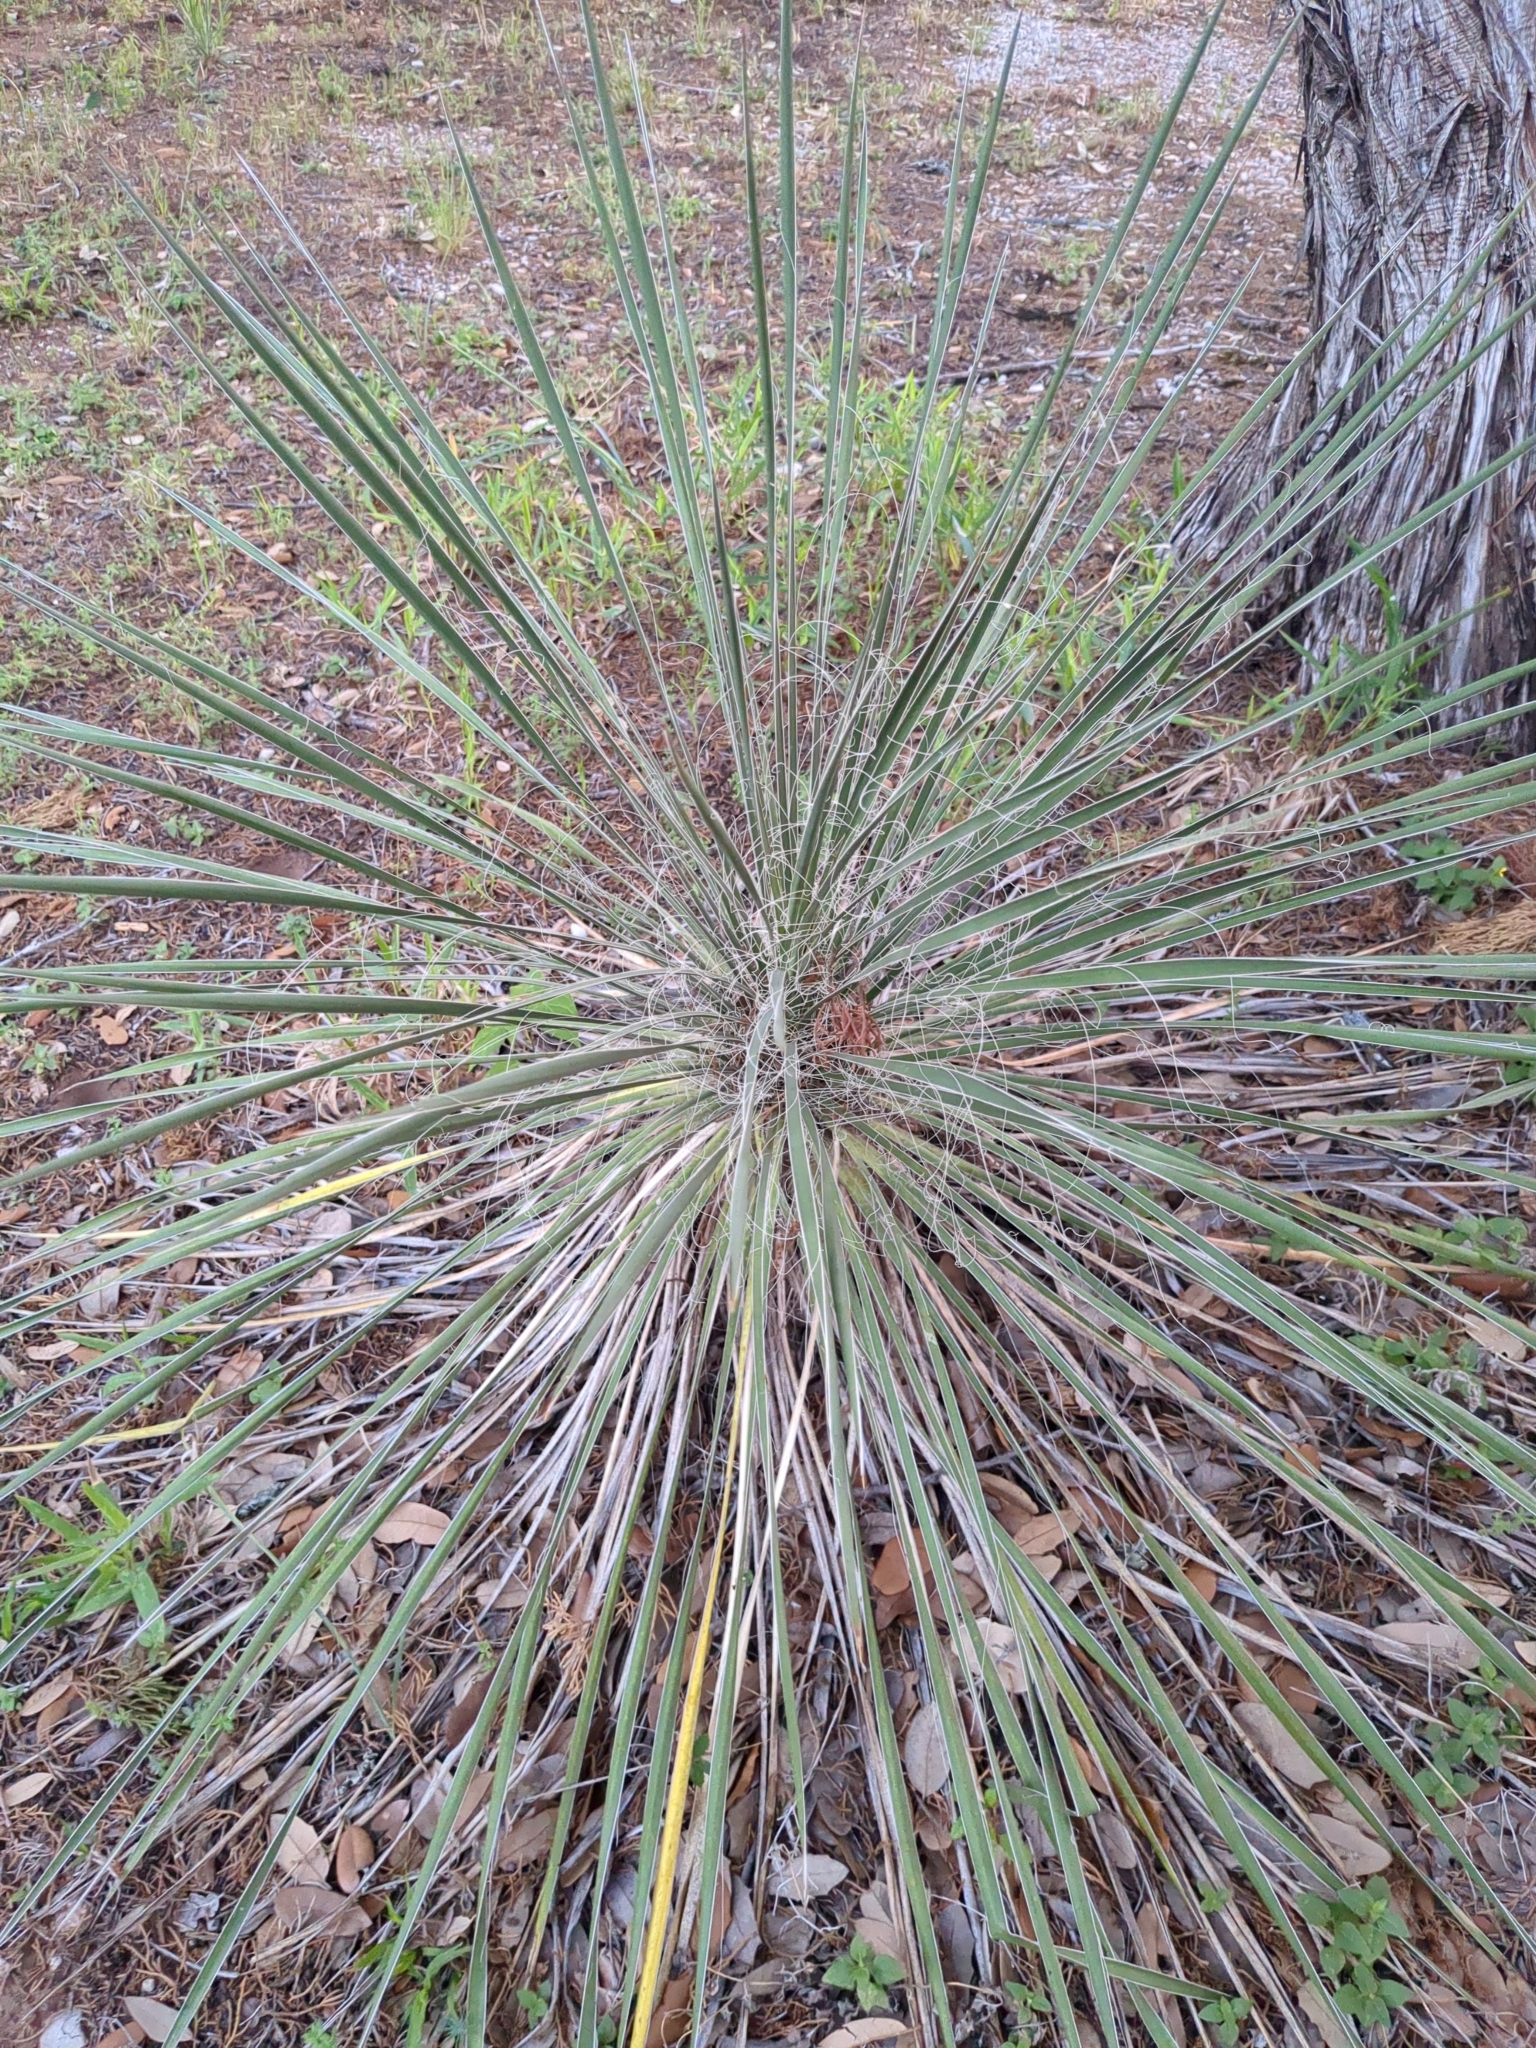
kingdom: Plantae
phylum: Tracheophyta
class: Liliopsida
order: Asparagales
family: Asparagaceae
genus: Yucca
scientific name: Yucca constricta
